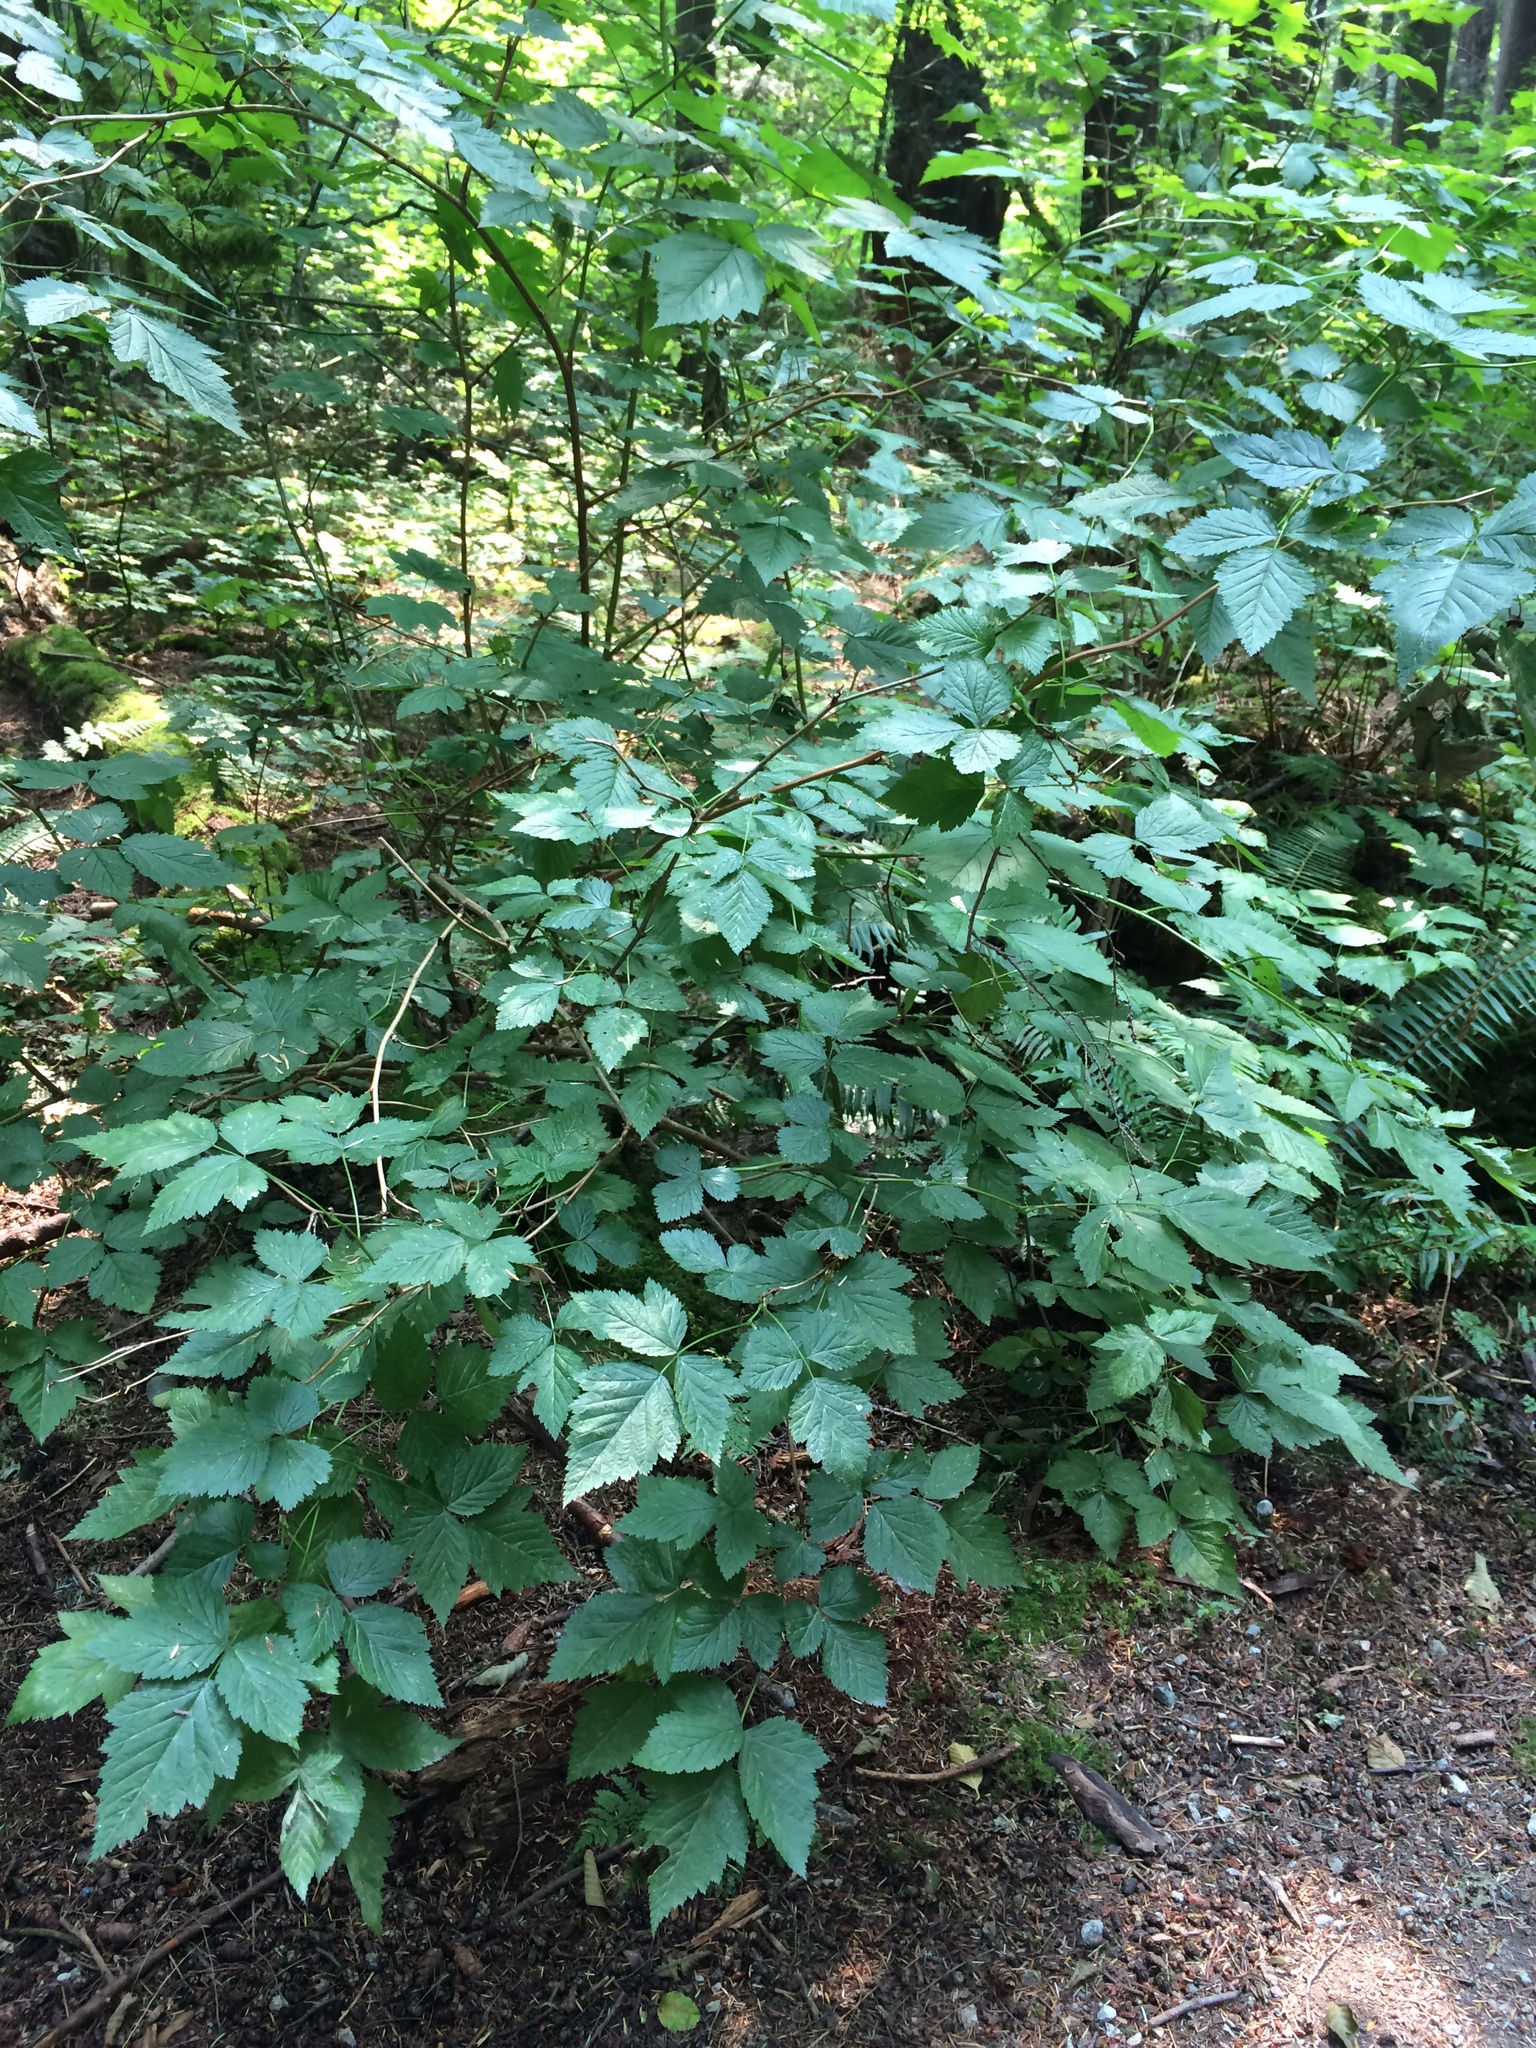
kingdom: Plantae
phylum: Tracheophyta
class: Magnoliopsida
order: Rosales
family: Rosaceae
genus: Rubus
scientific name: Rubus spectabilis
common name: Salmonberry
